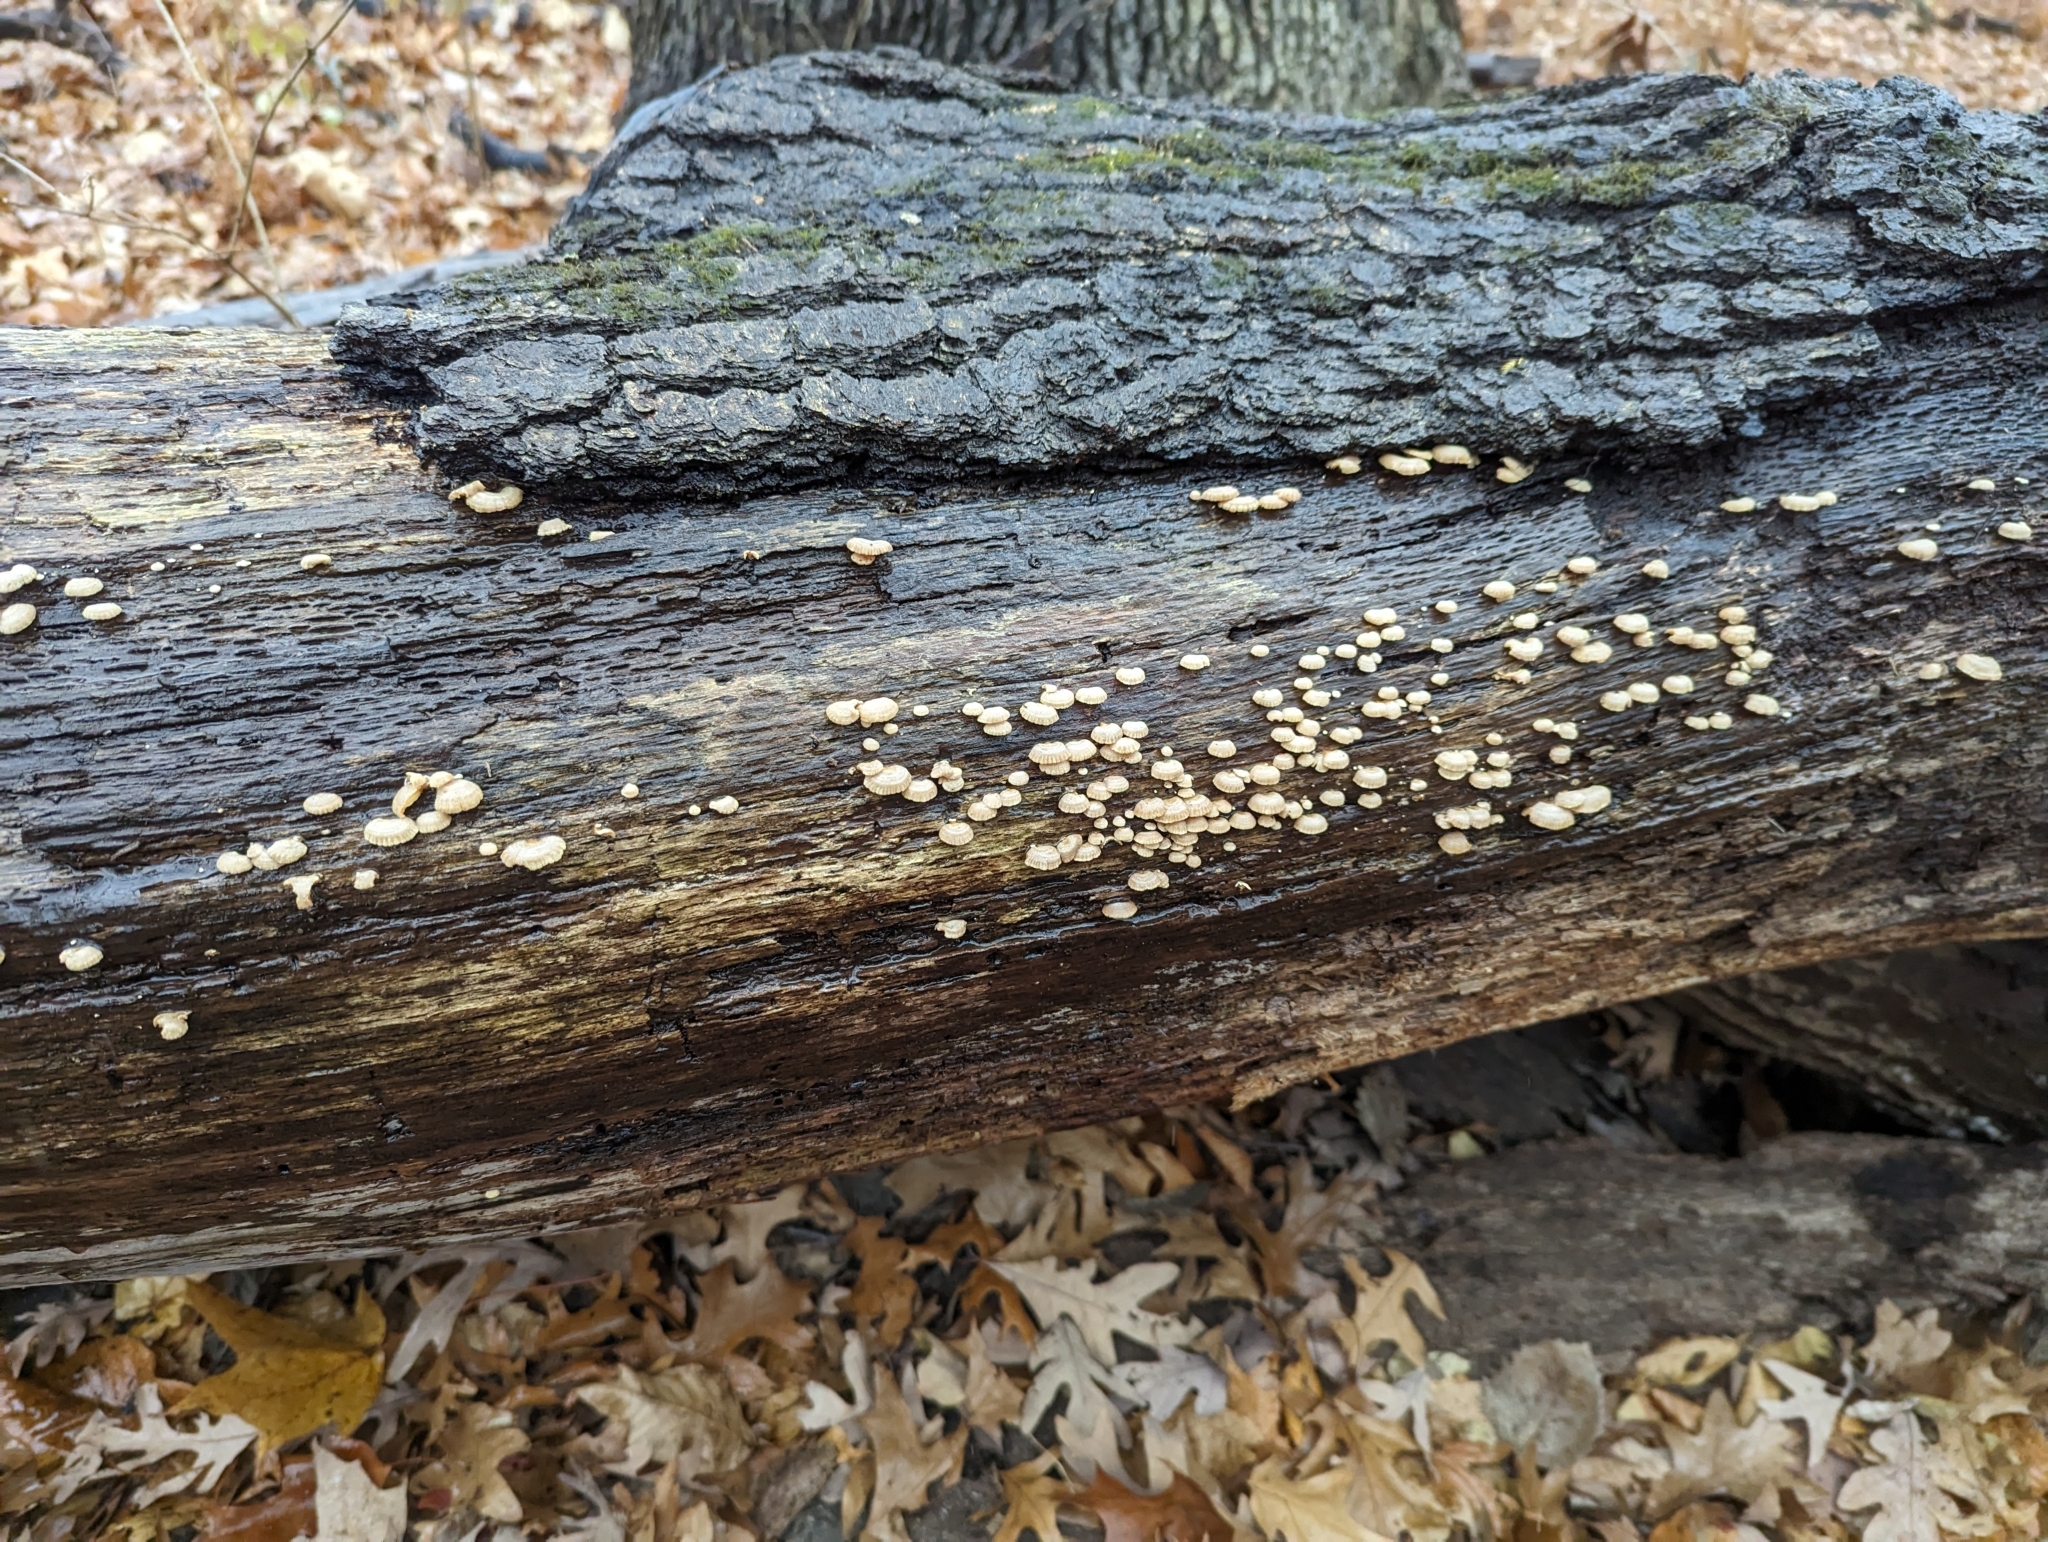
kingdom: Fungi
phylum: Basidiomycota
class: Agaricomycetes
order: Agaricales
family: Mycenaceae
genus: Panellus
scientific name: Panellus stipticus
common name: Bitter oysterling
